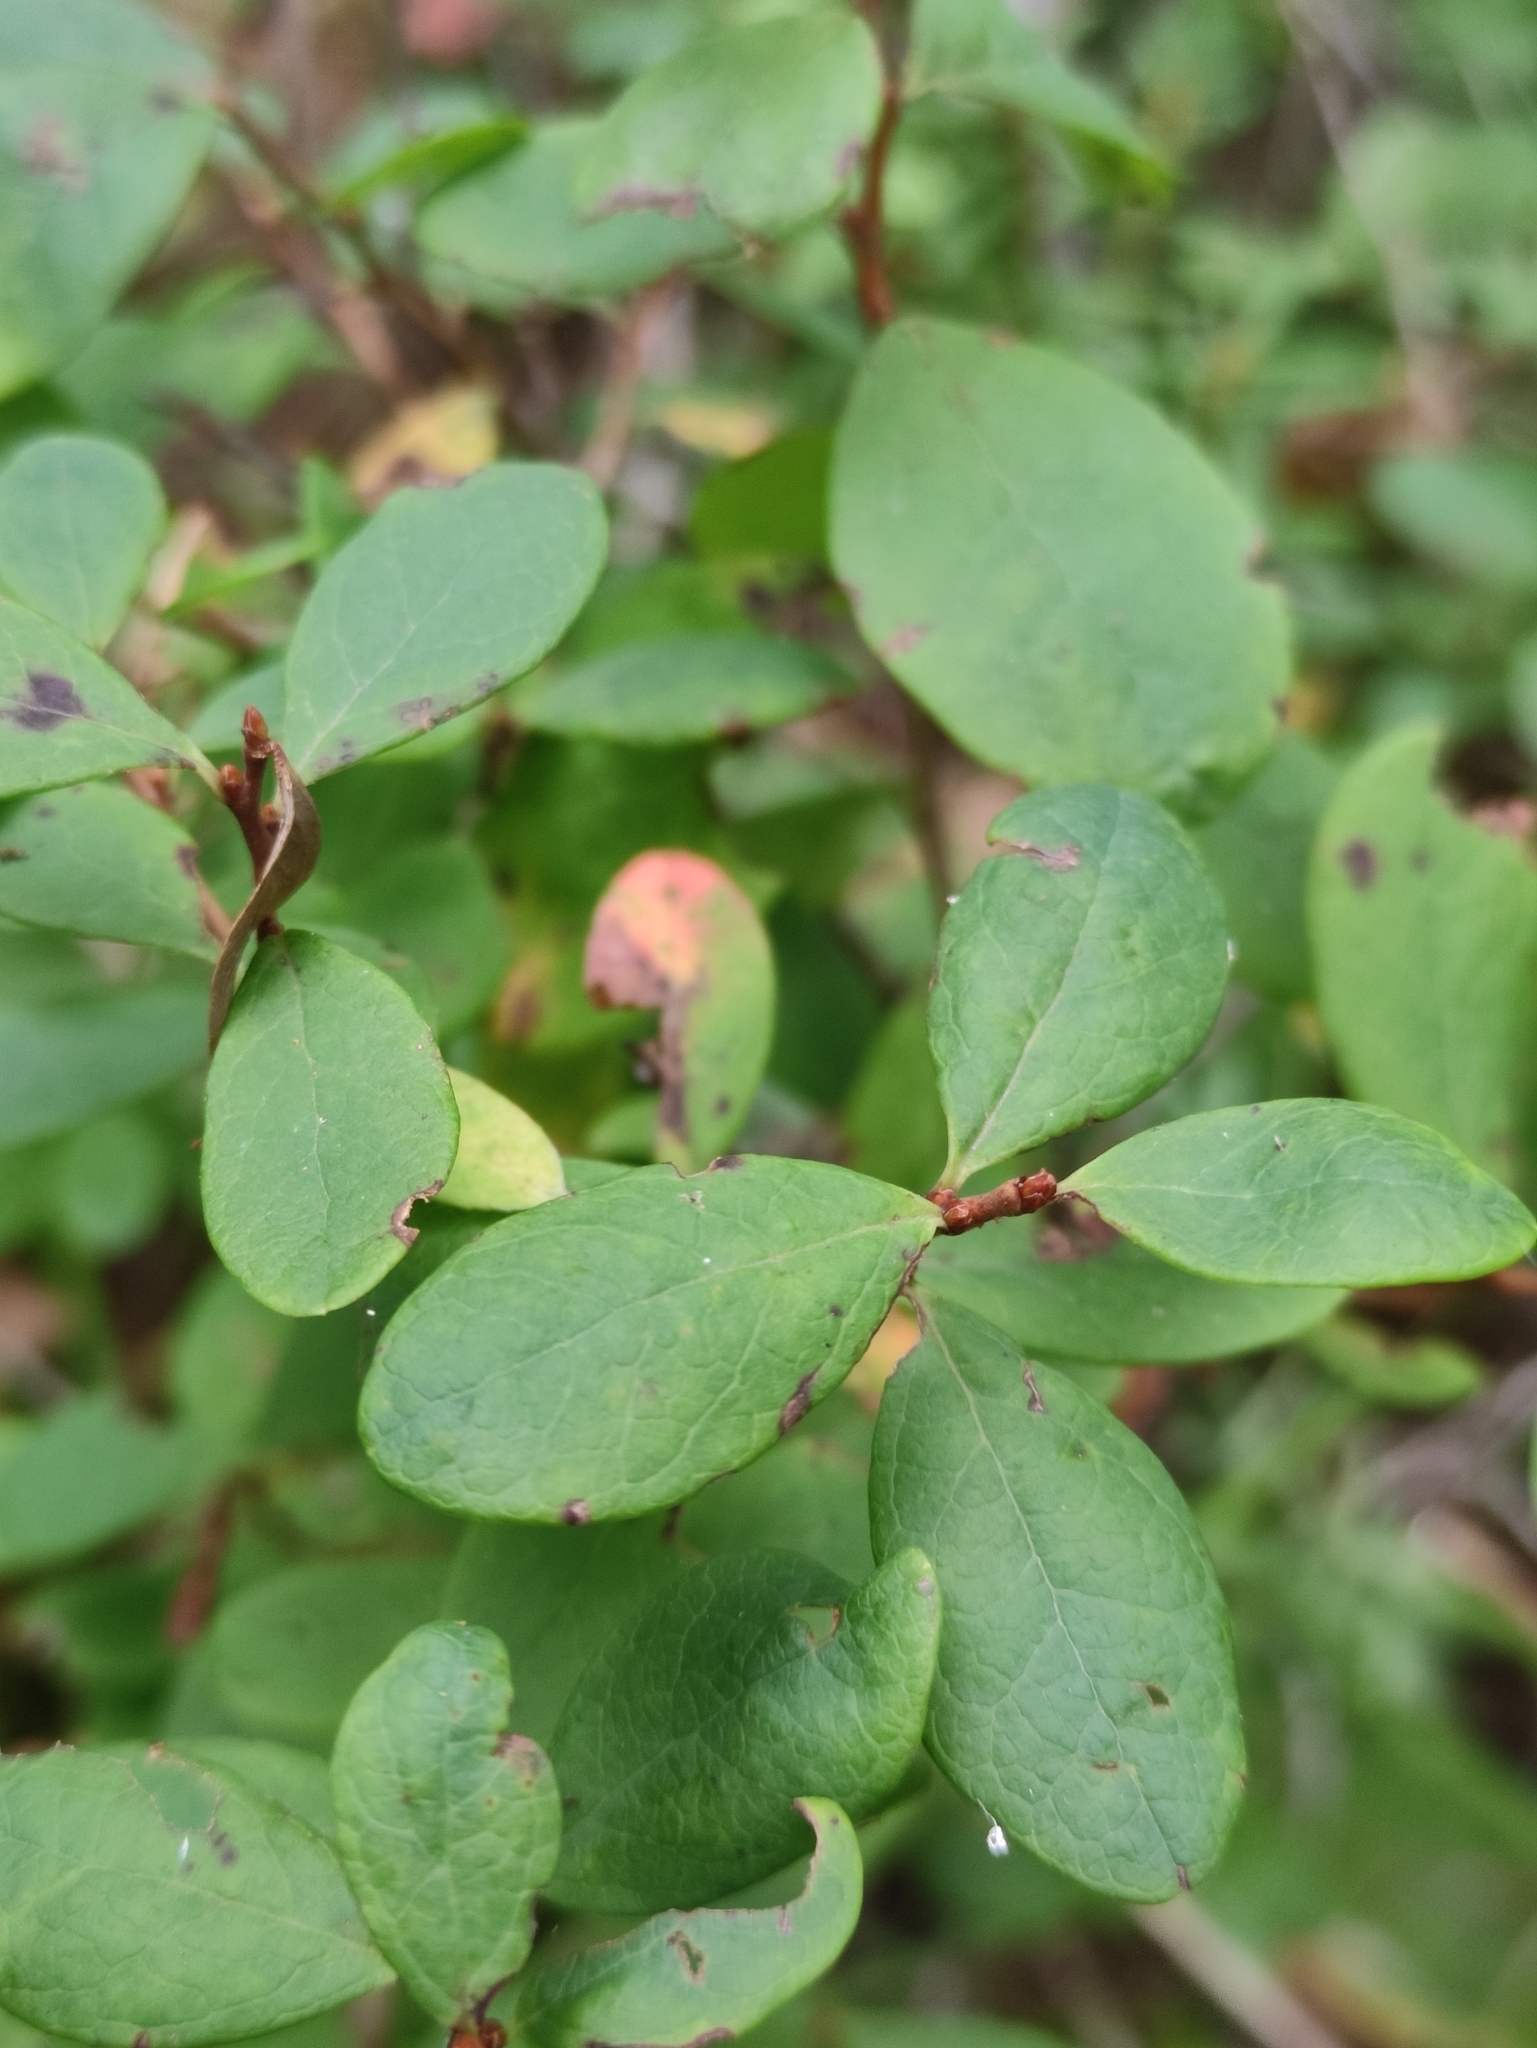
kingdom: Plantae
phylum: Tracheophyta
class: Magnoliopsida
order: Ericales
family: Ericaceae
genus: Vaccinium
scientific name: Vaccinium uliginosum
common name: Bog bilberry
